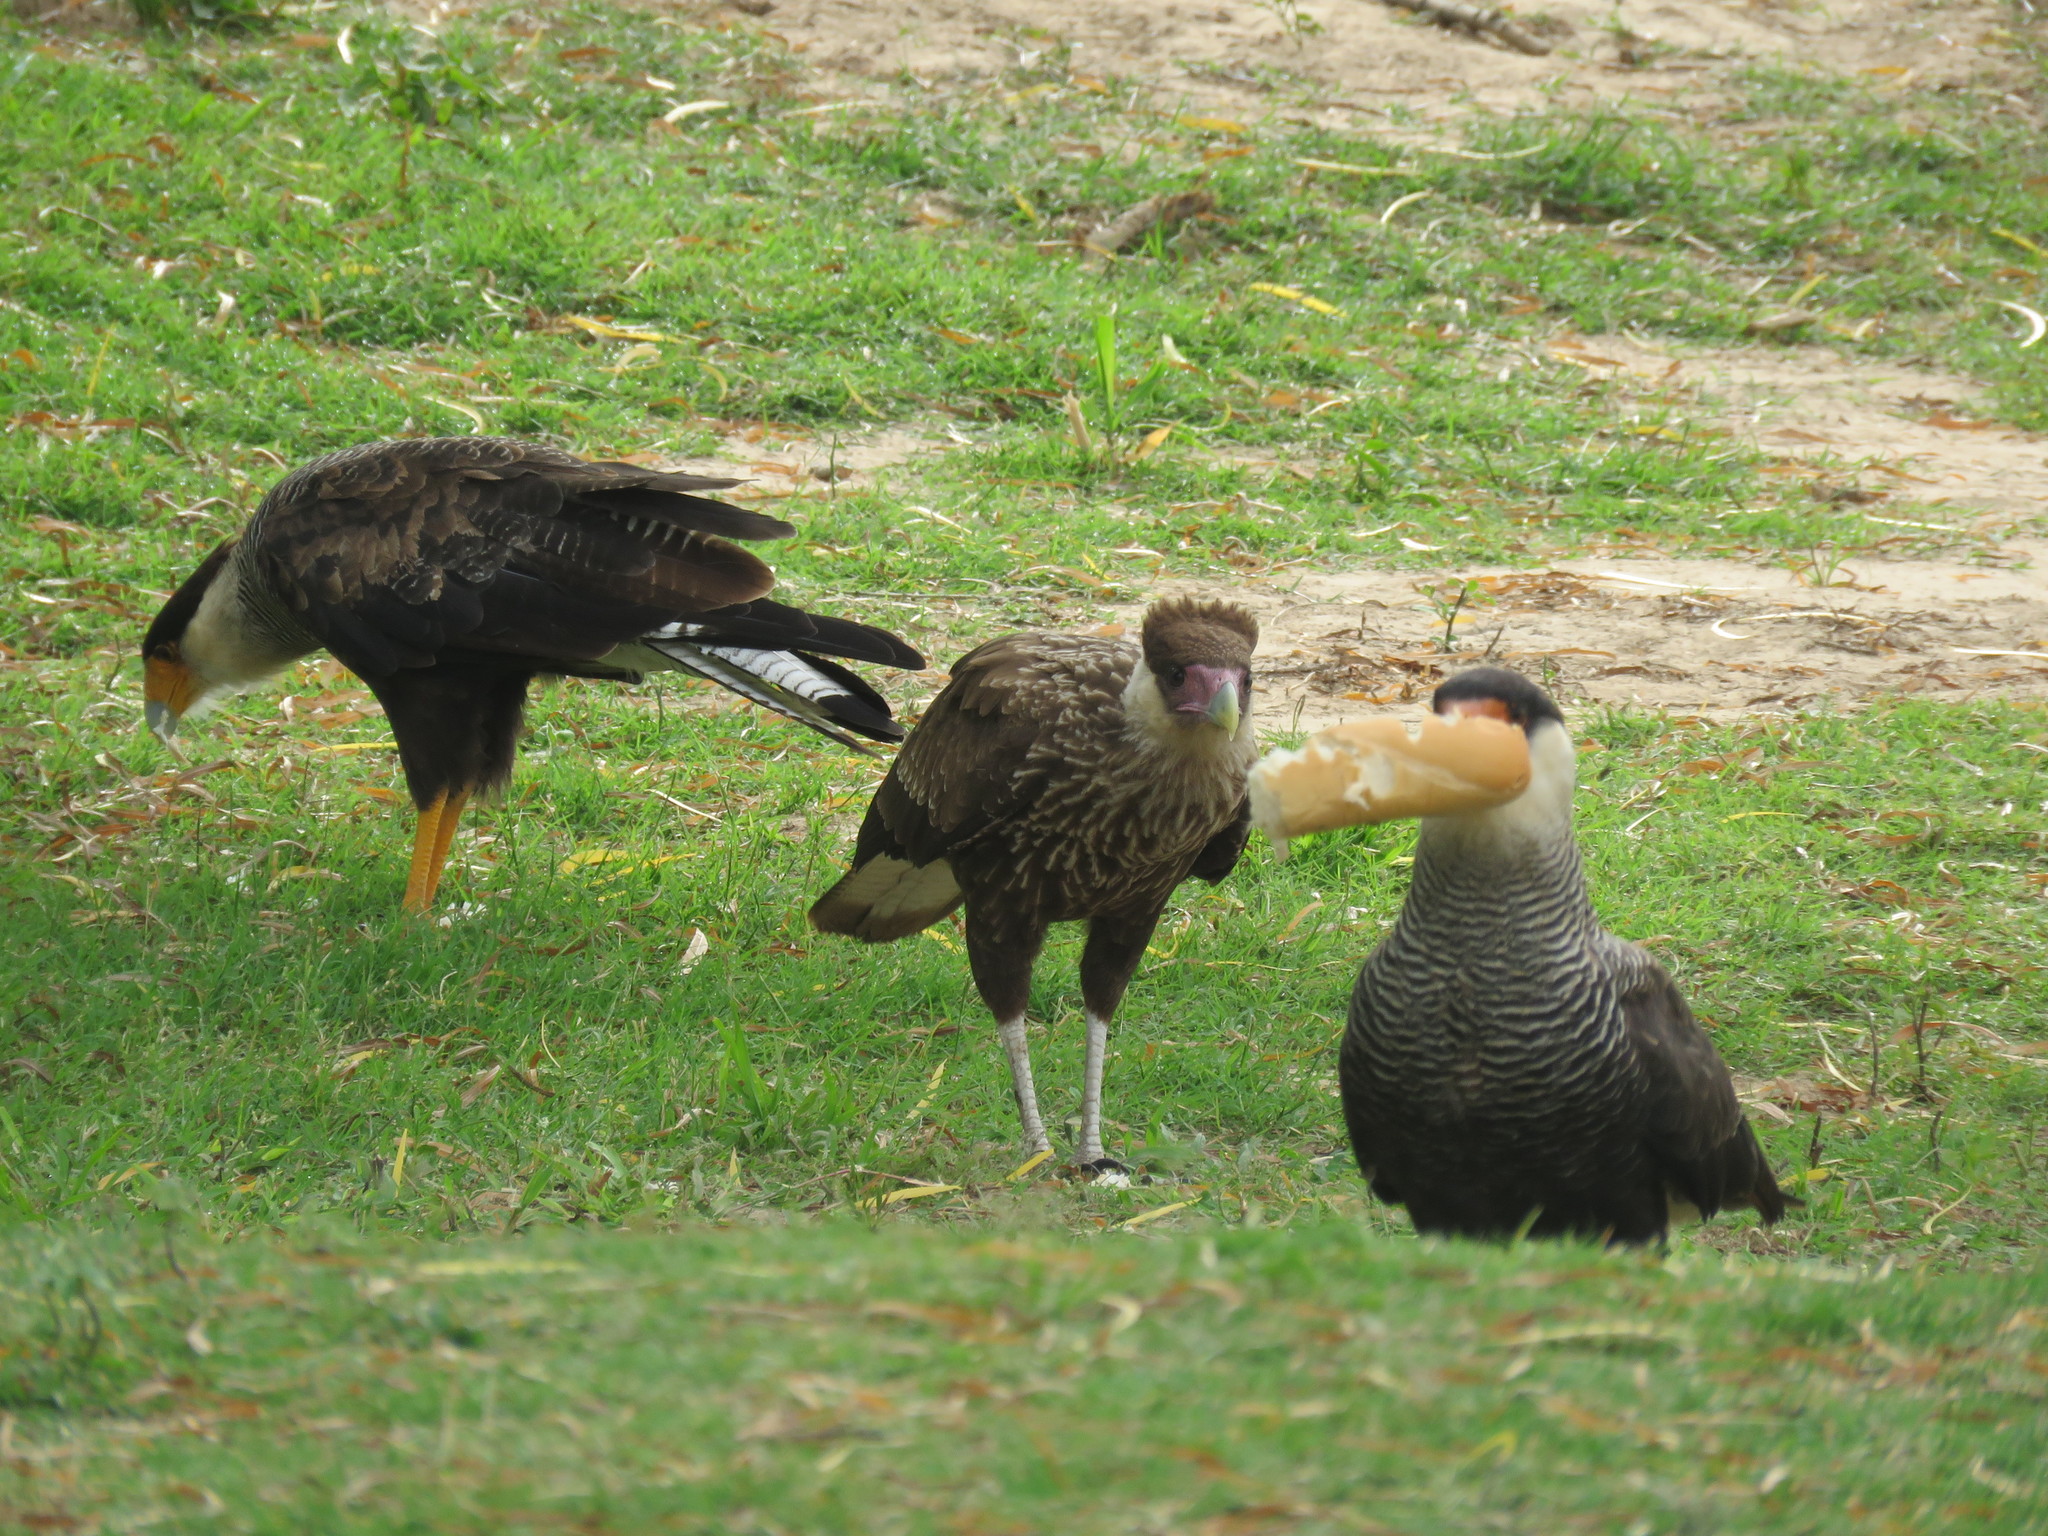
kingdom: Animalia
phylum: Chordata
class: Aves
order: Falconiformes
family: Falconidae
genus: Caracara
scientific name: Caracara plancus
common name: Southern caracara
